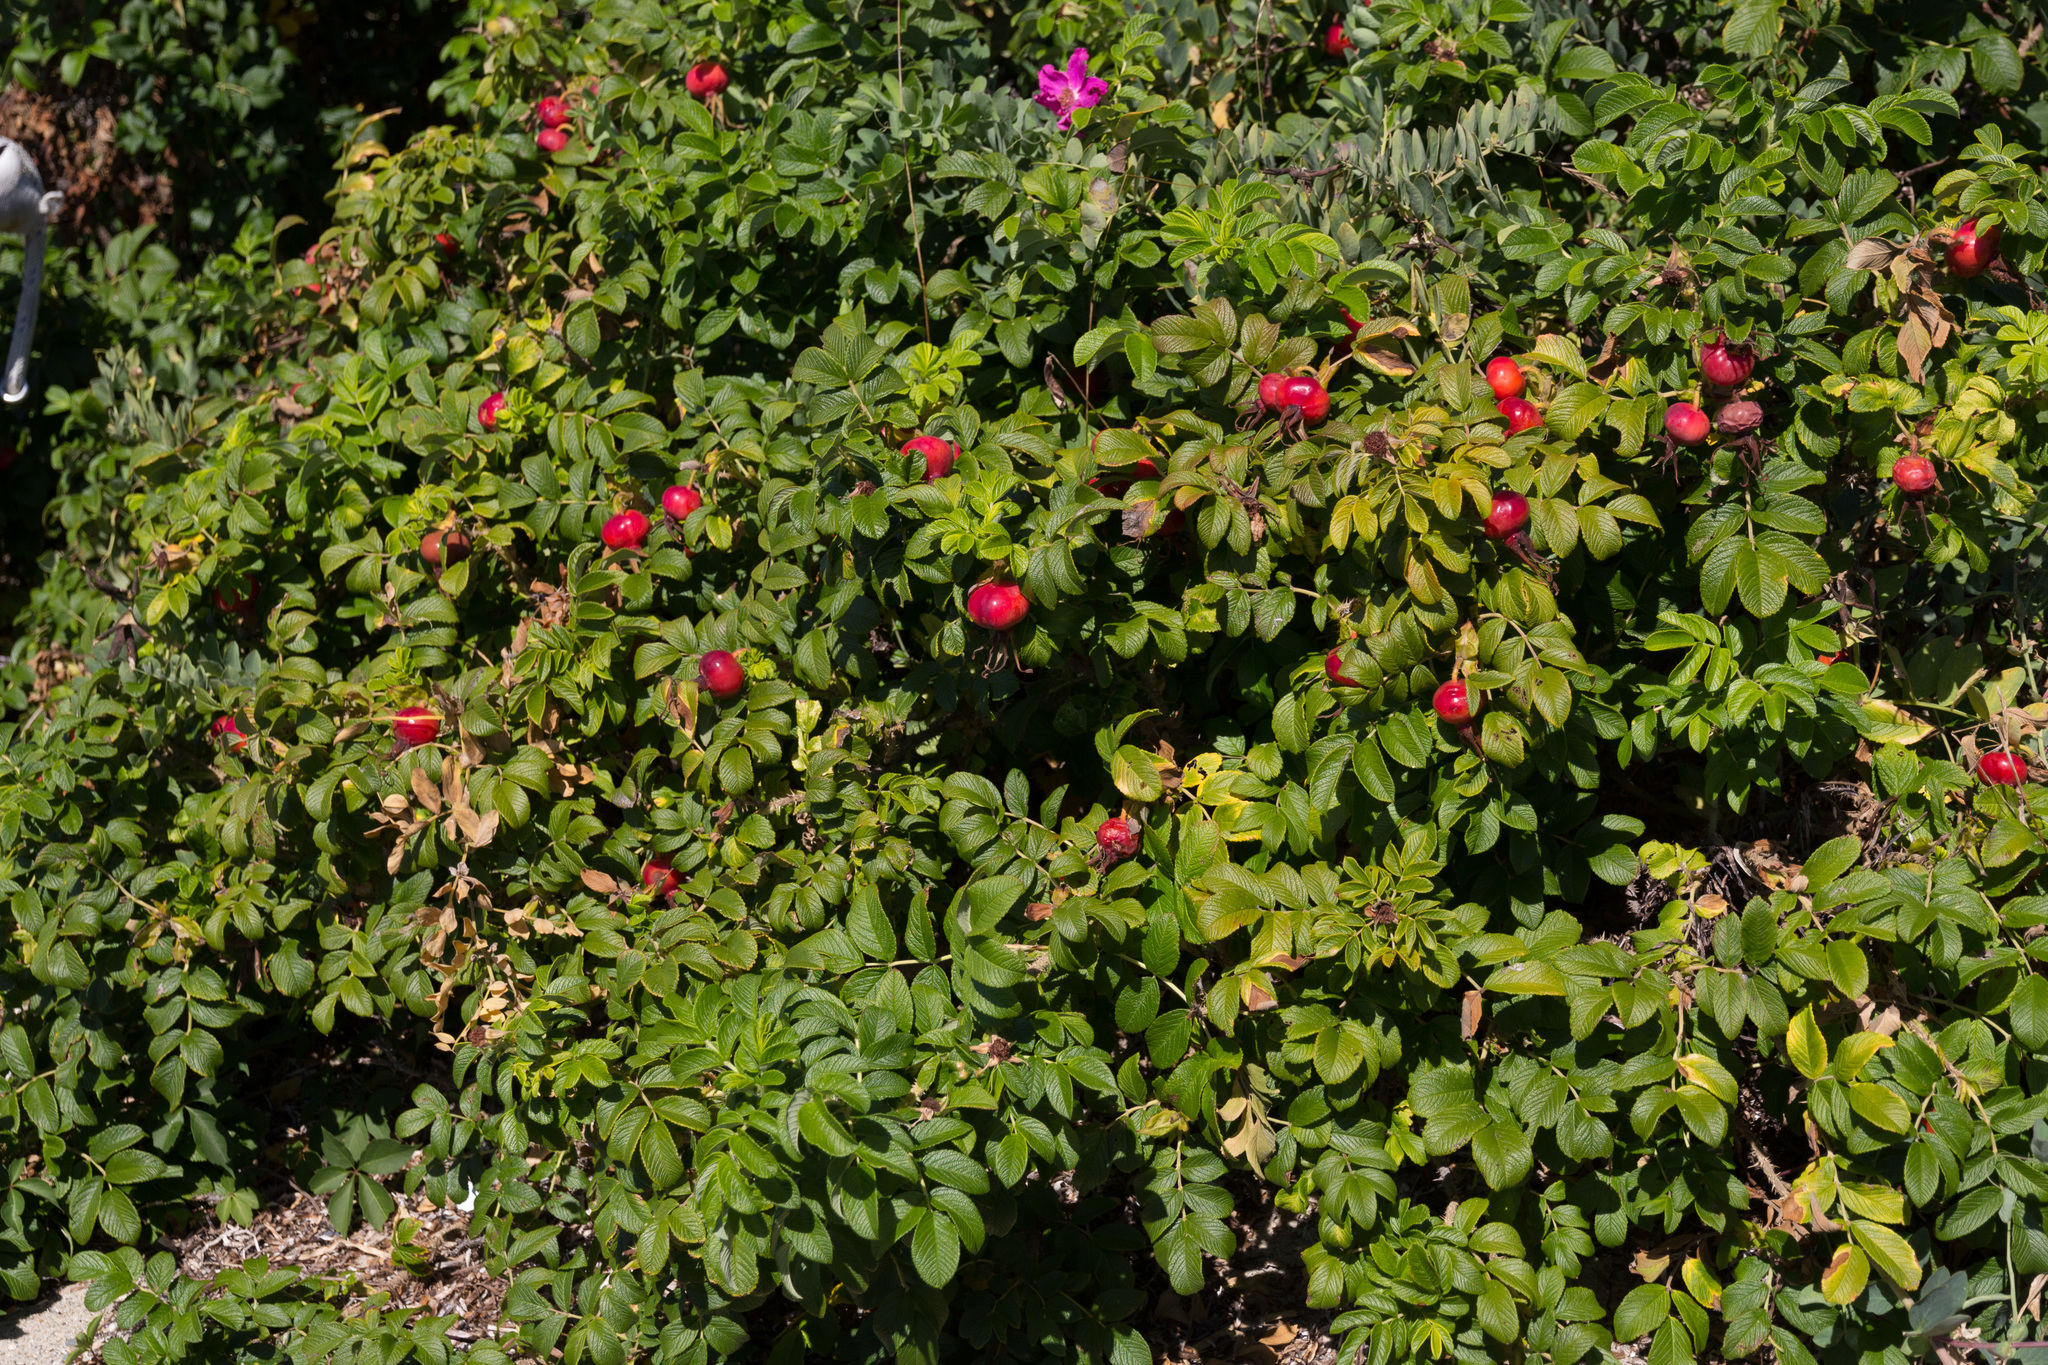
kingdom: Plantae
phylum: Tracheophyta
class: Magnoliopsida
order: Rosales
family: Rosaceae
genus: Rosa
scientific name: Rosa rugosa
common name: Japanese rose
